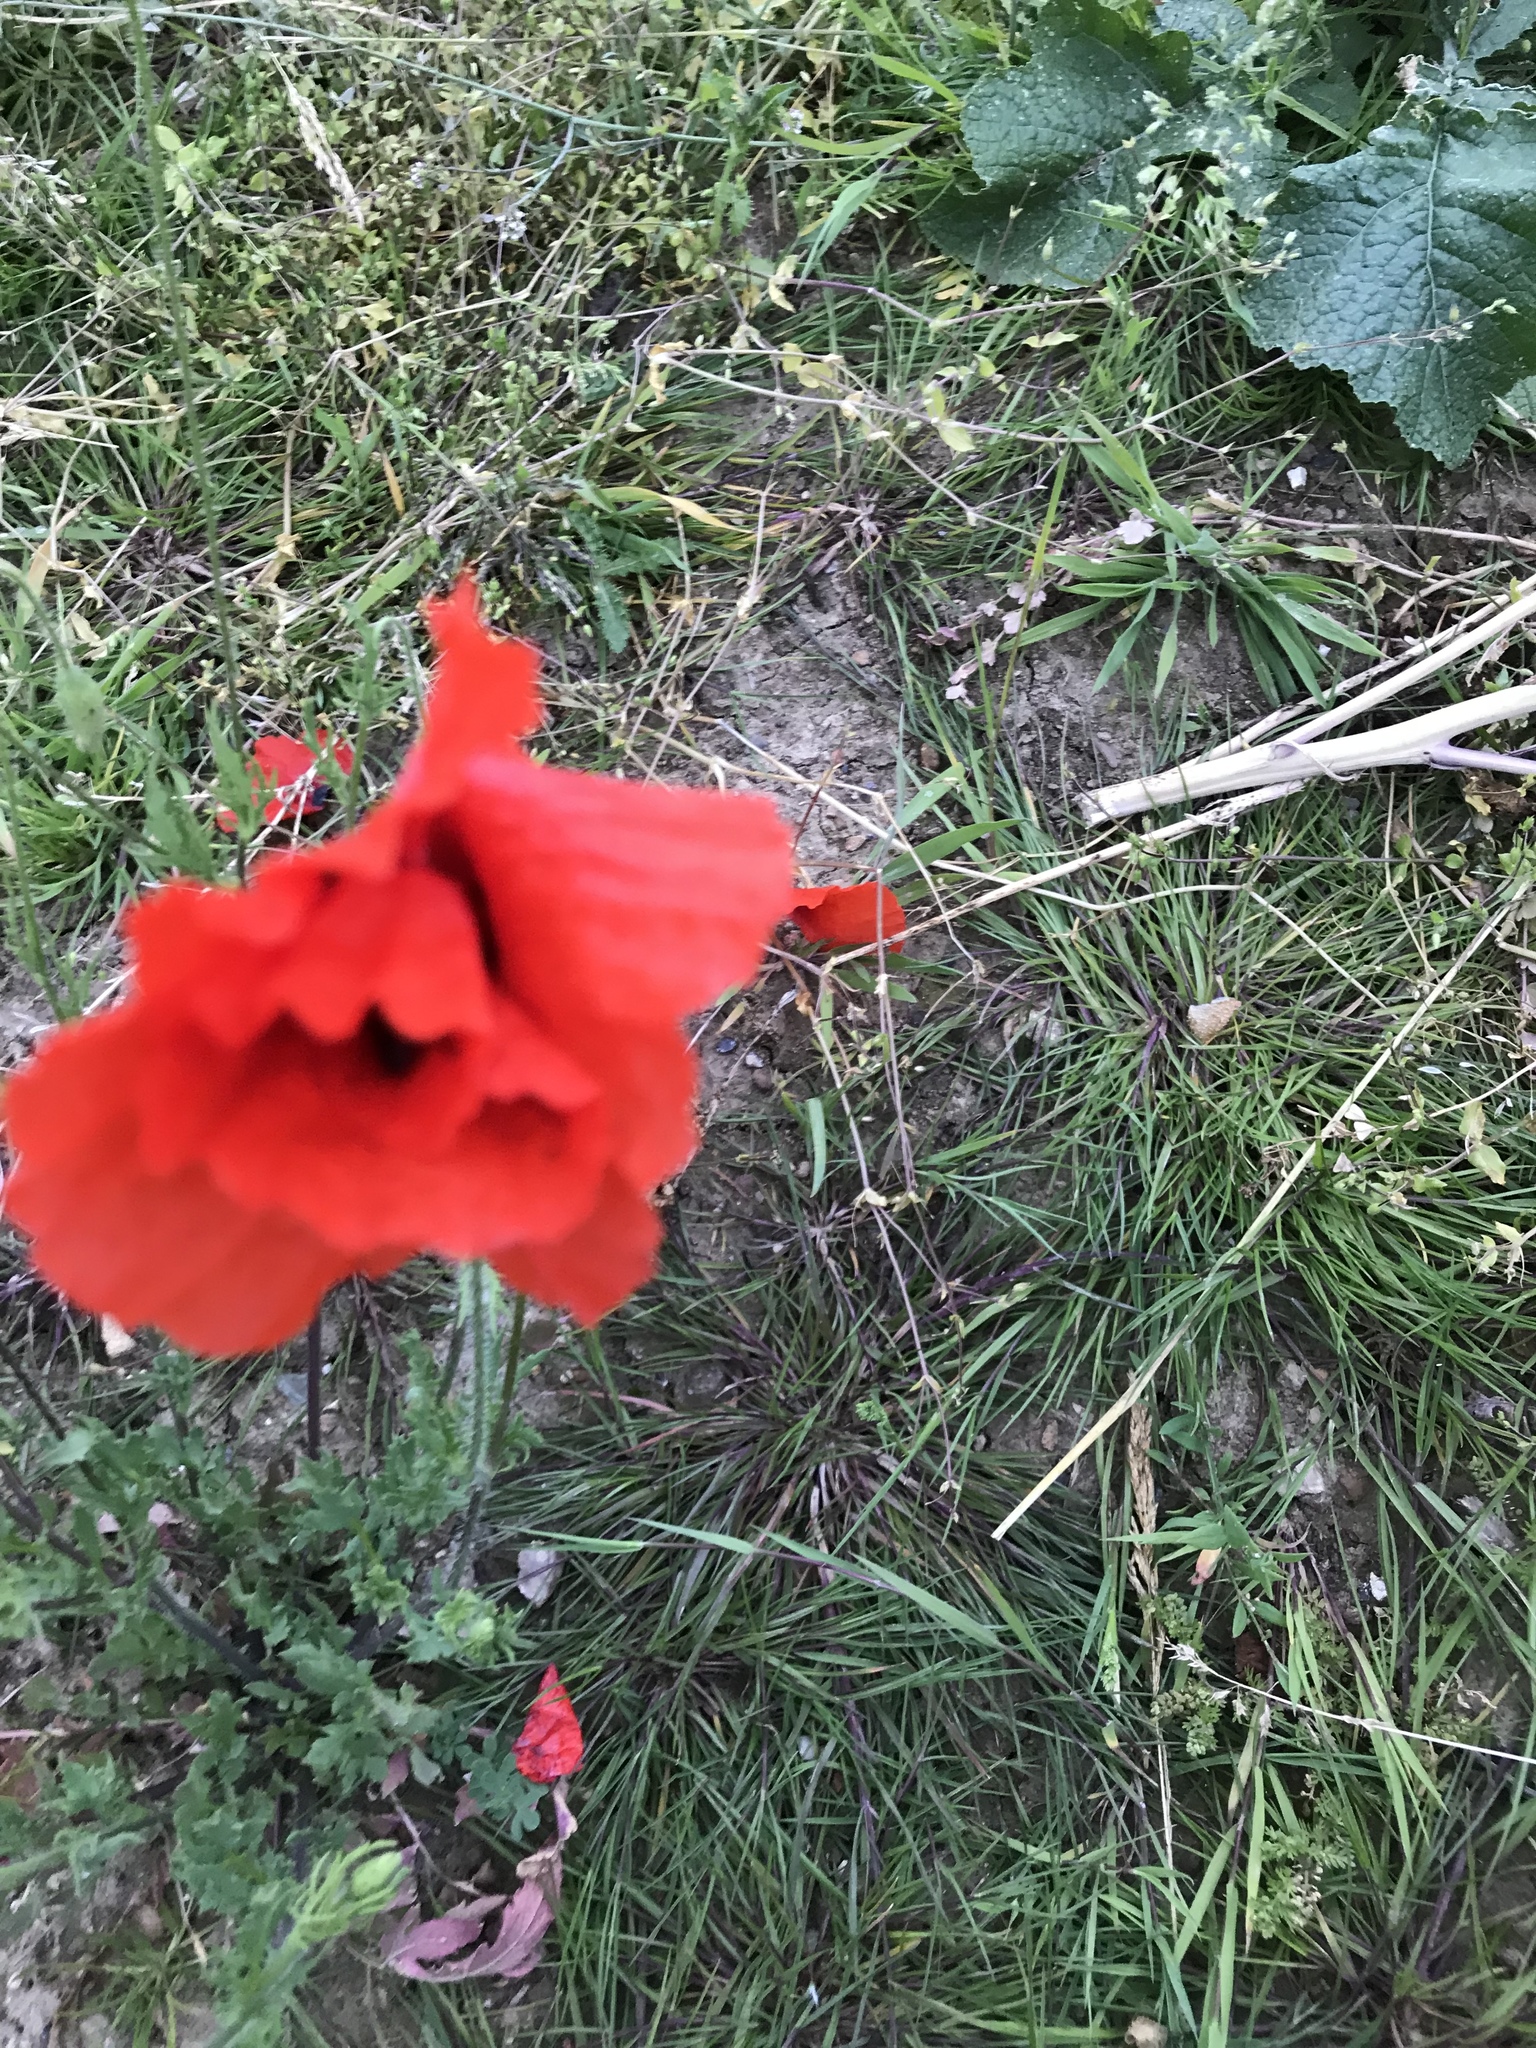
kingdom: Plantae
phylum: Tracheophyta
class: Magnoliopsida
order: Ranunculales
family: Papaveraceae
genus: Papaver
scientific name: Papaver rhoeas
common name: Corn poppy
